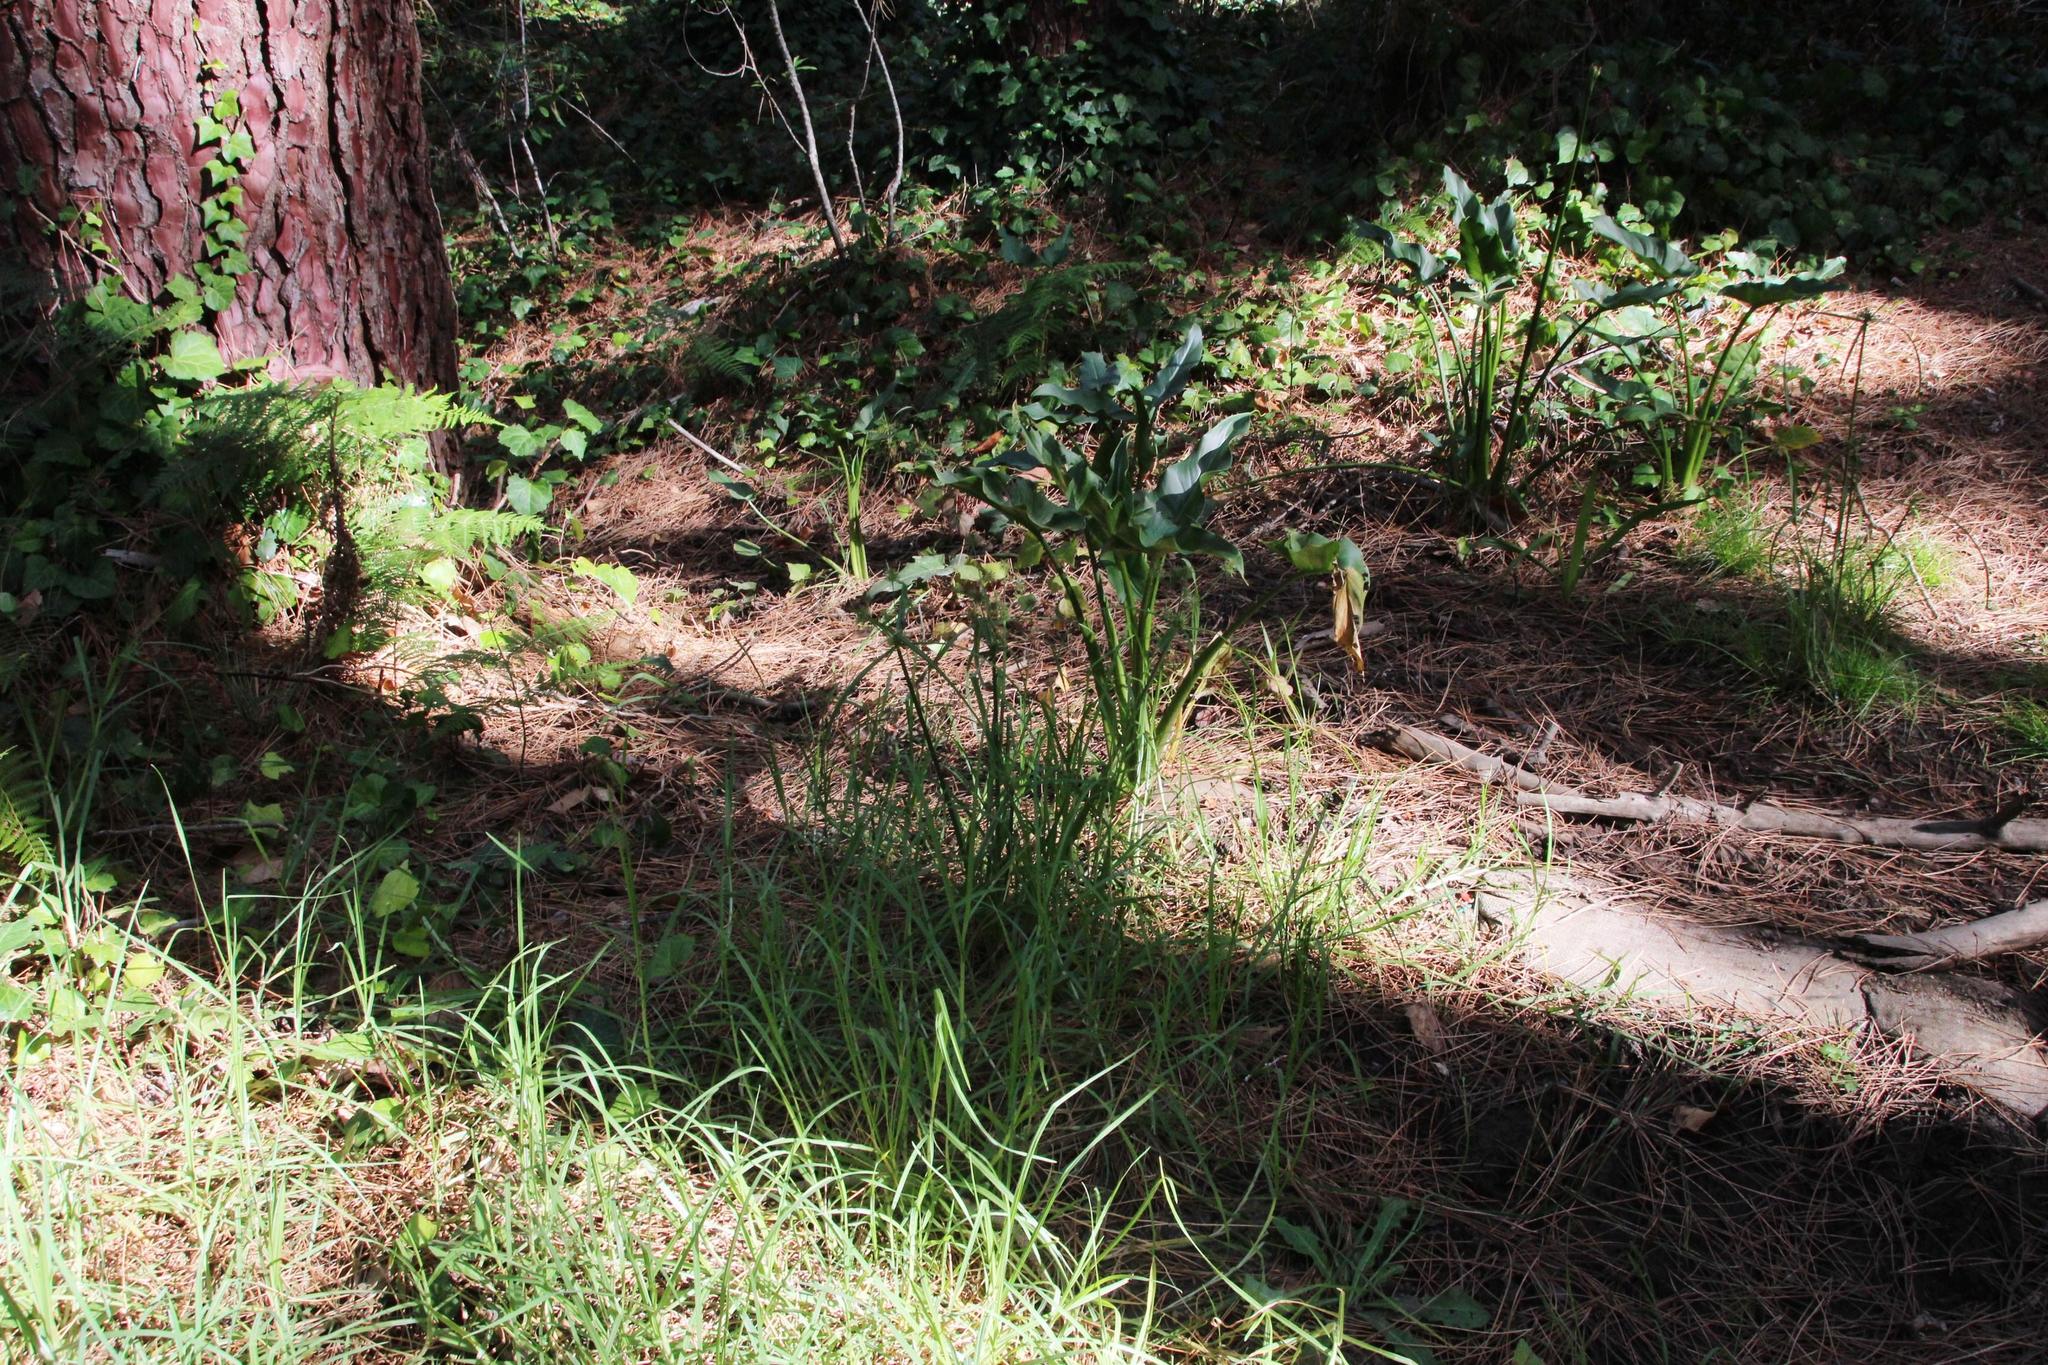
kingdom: Plantae
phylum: Tracheophyta
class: Liliopsida
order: Alismatales
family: Araceae
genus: Zantedeschia
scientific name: Zantedeschia aethiopica
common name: Altar-lily
